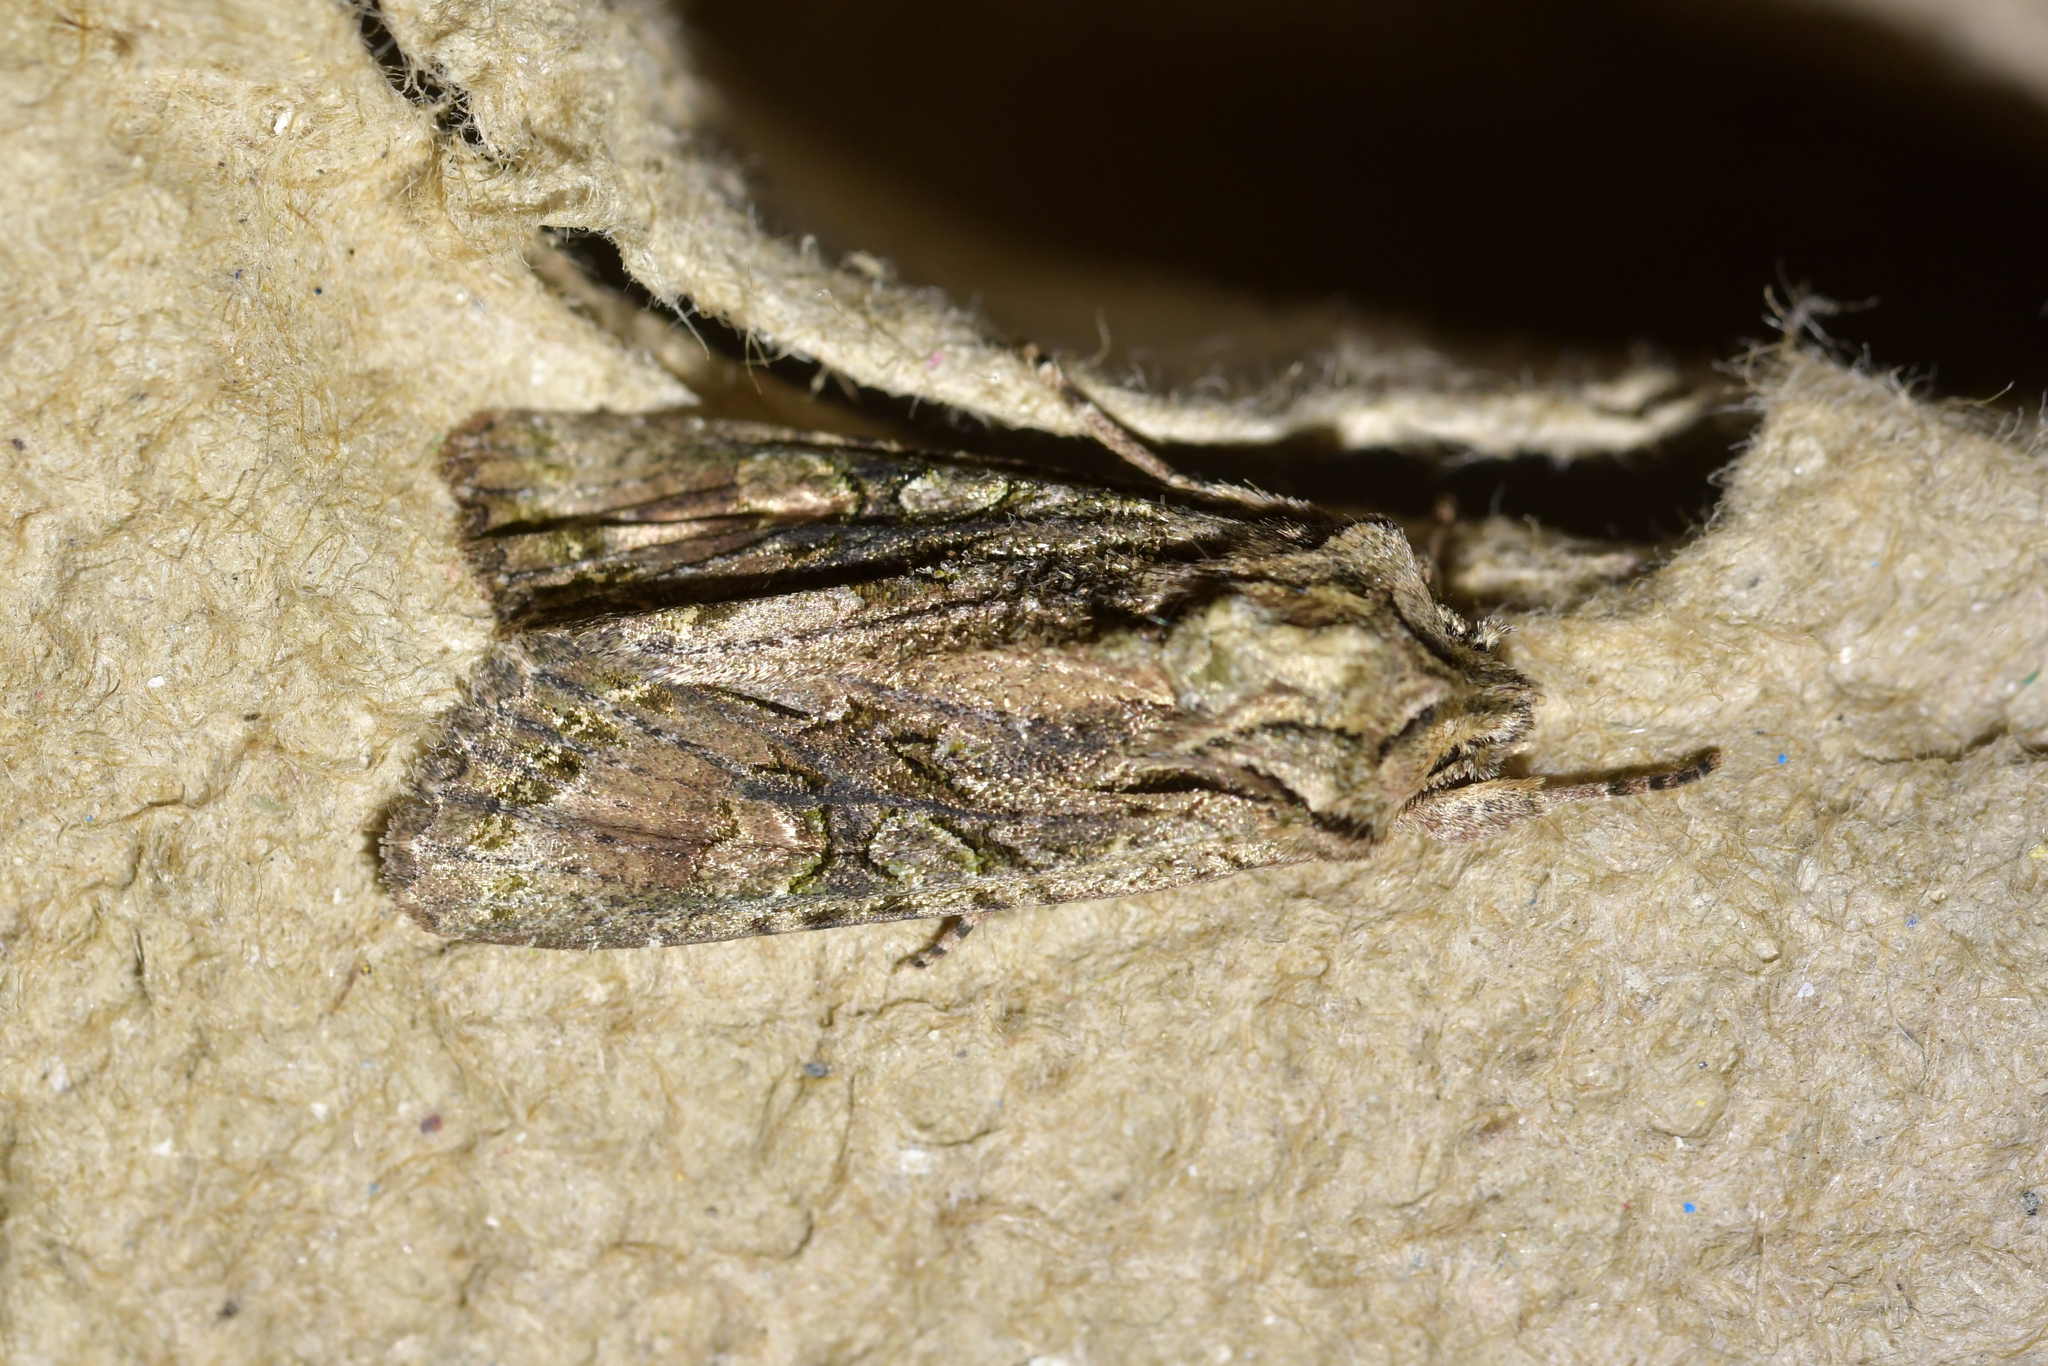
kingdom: Animalia
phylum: Arthropoda
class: Insecta
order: Lepidoptera
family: Noctuidae
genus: Ichneutica
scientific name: Ichneutica mutans
